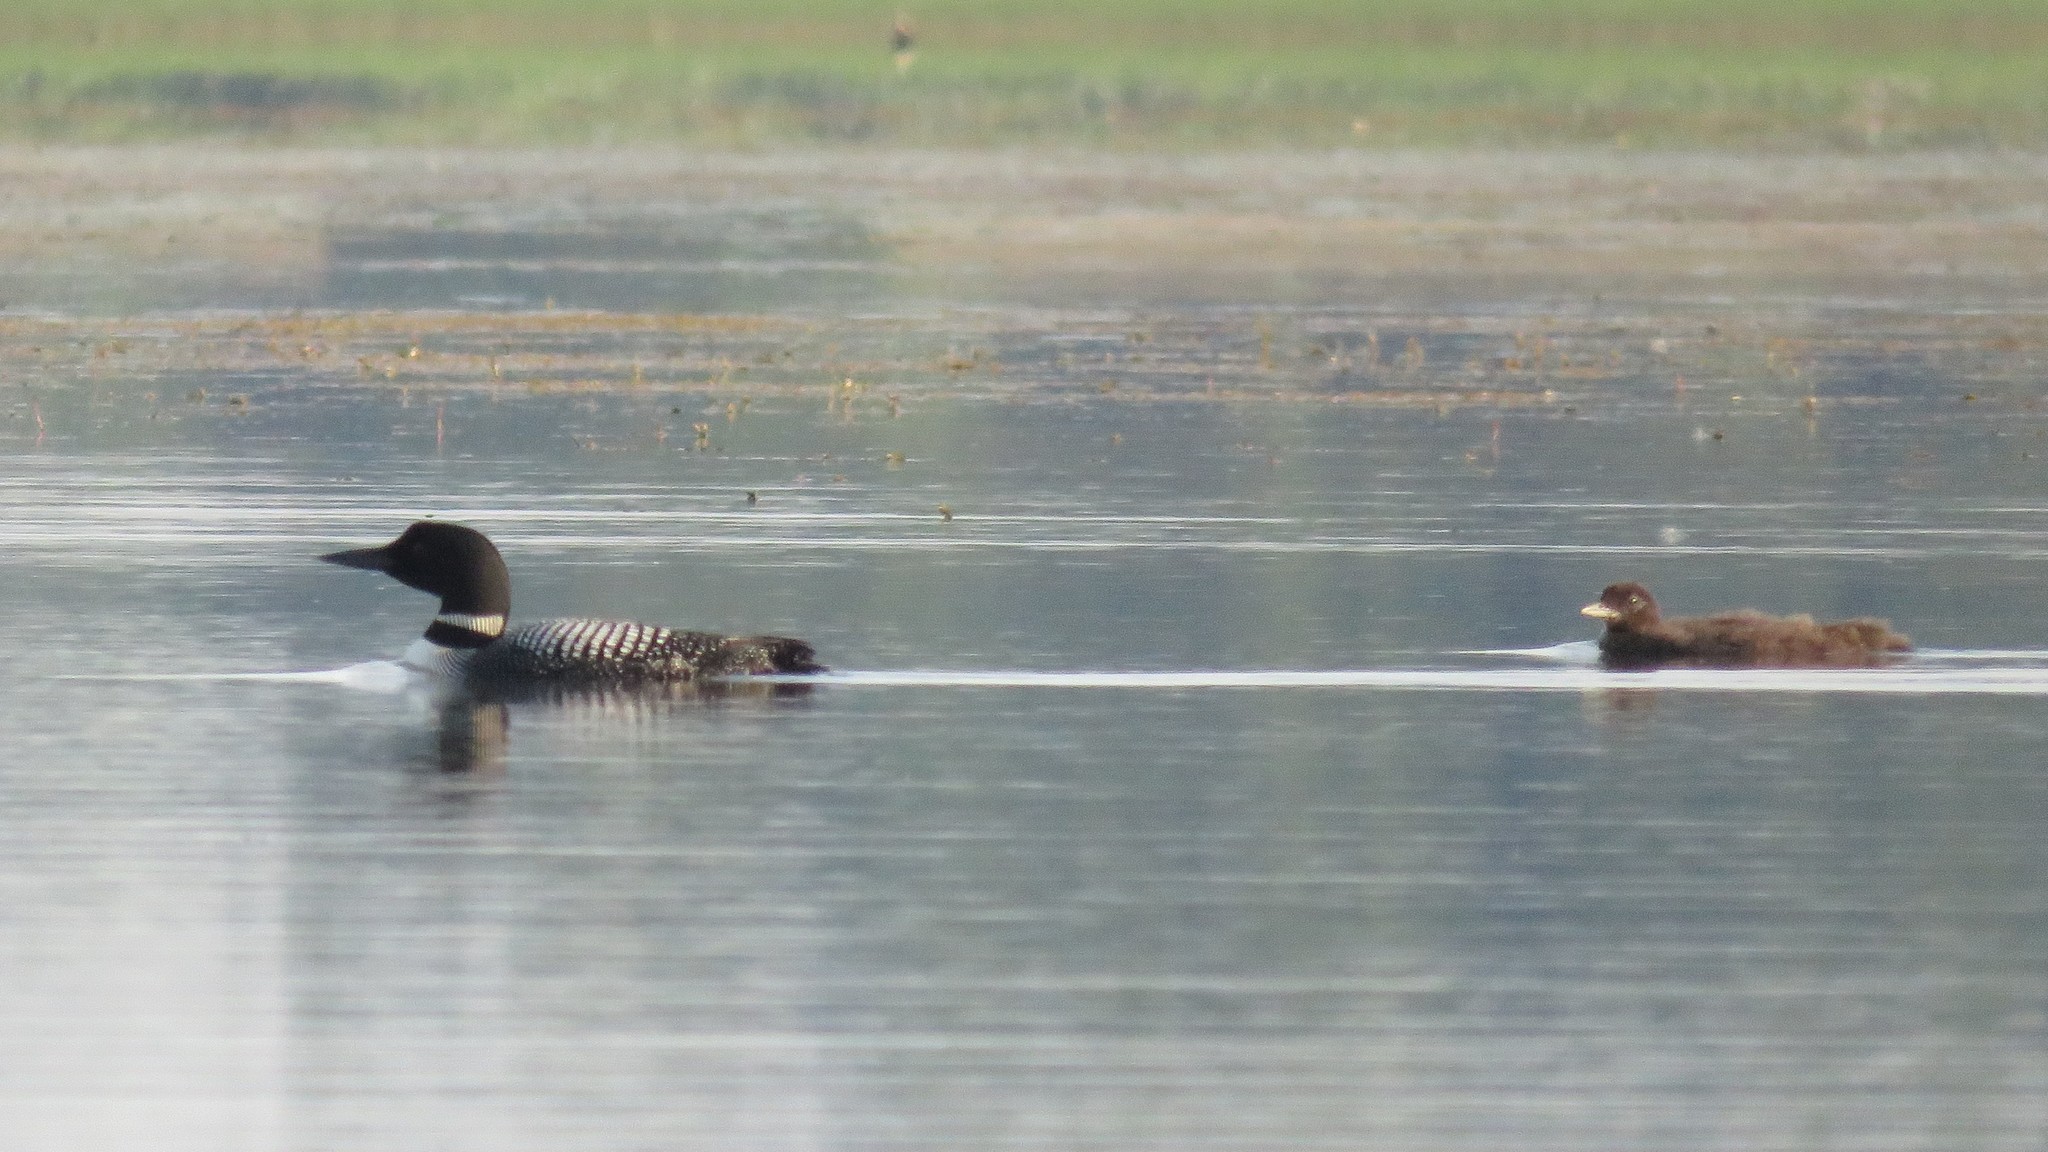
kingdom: Animalia
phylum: Chordata
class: Aves
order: Gaviiformes
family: Gaviidae
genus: Gavia
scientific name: Gavia immer
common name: Common loon
